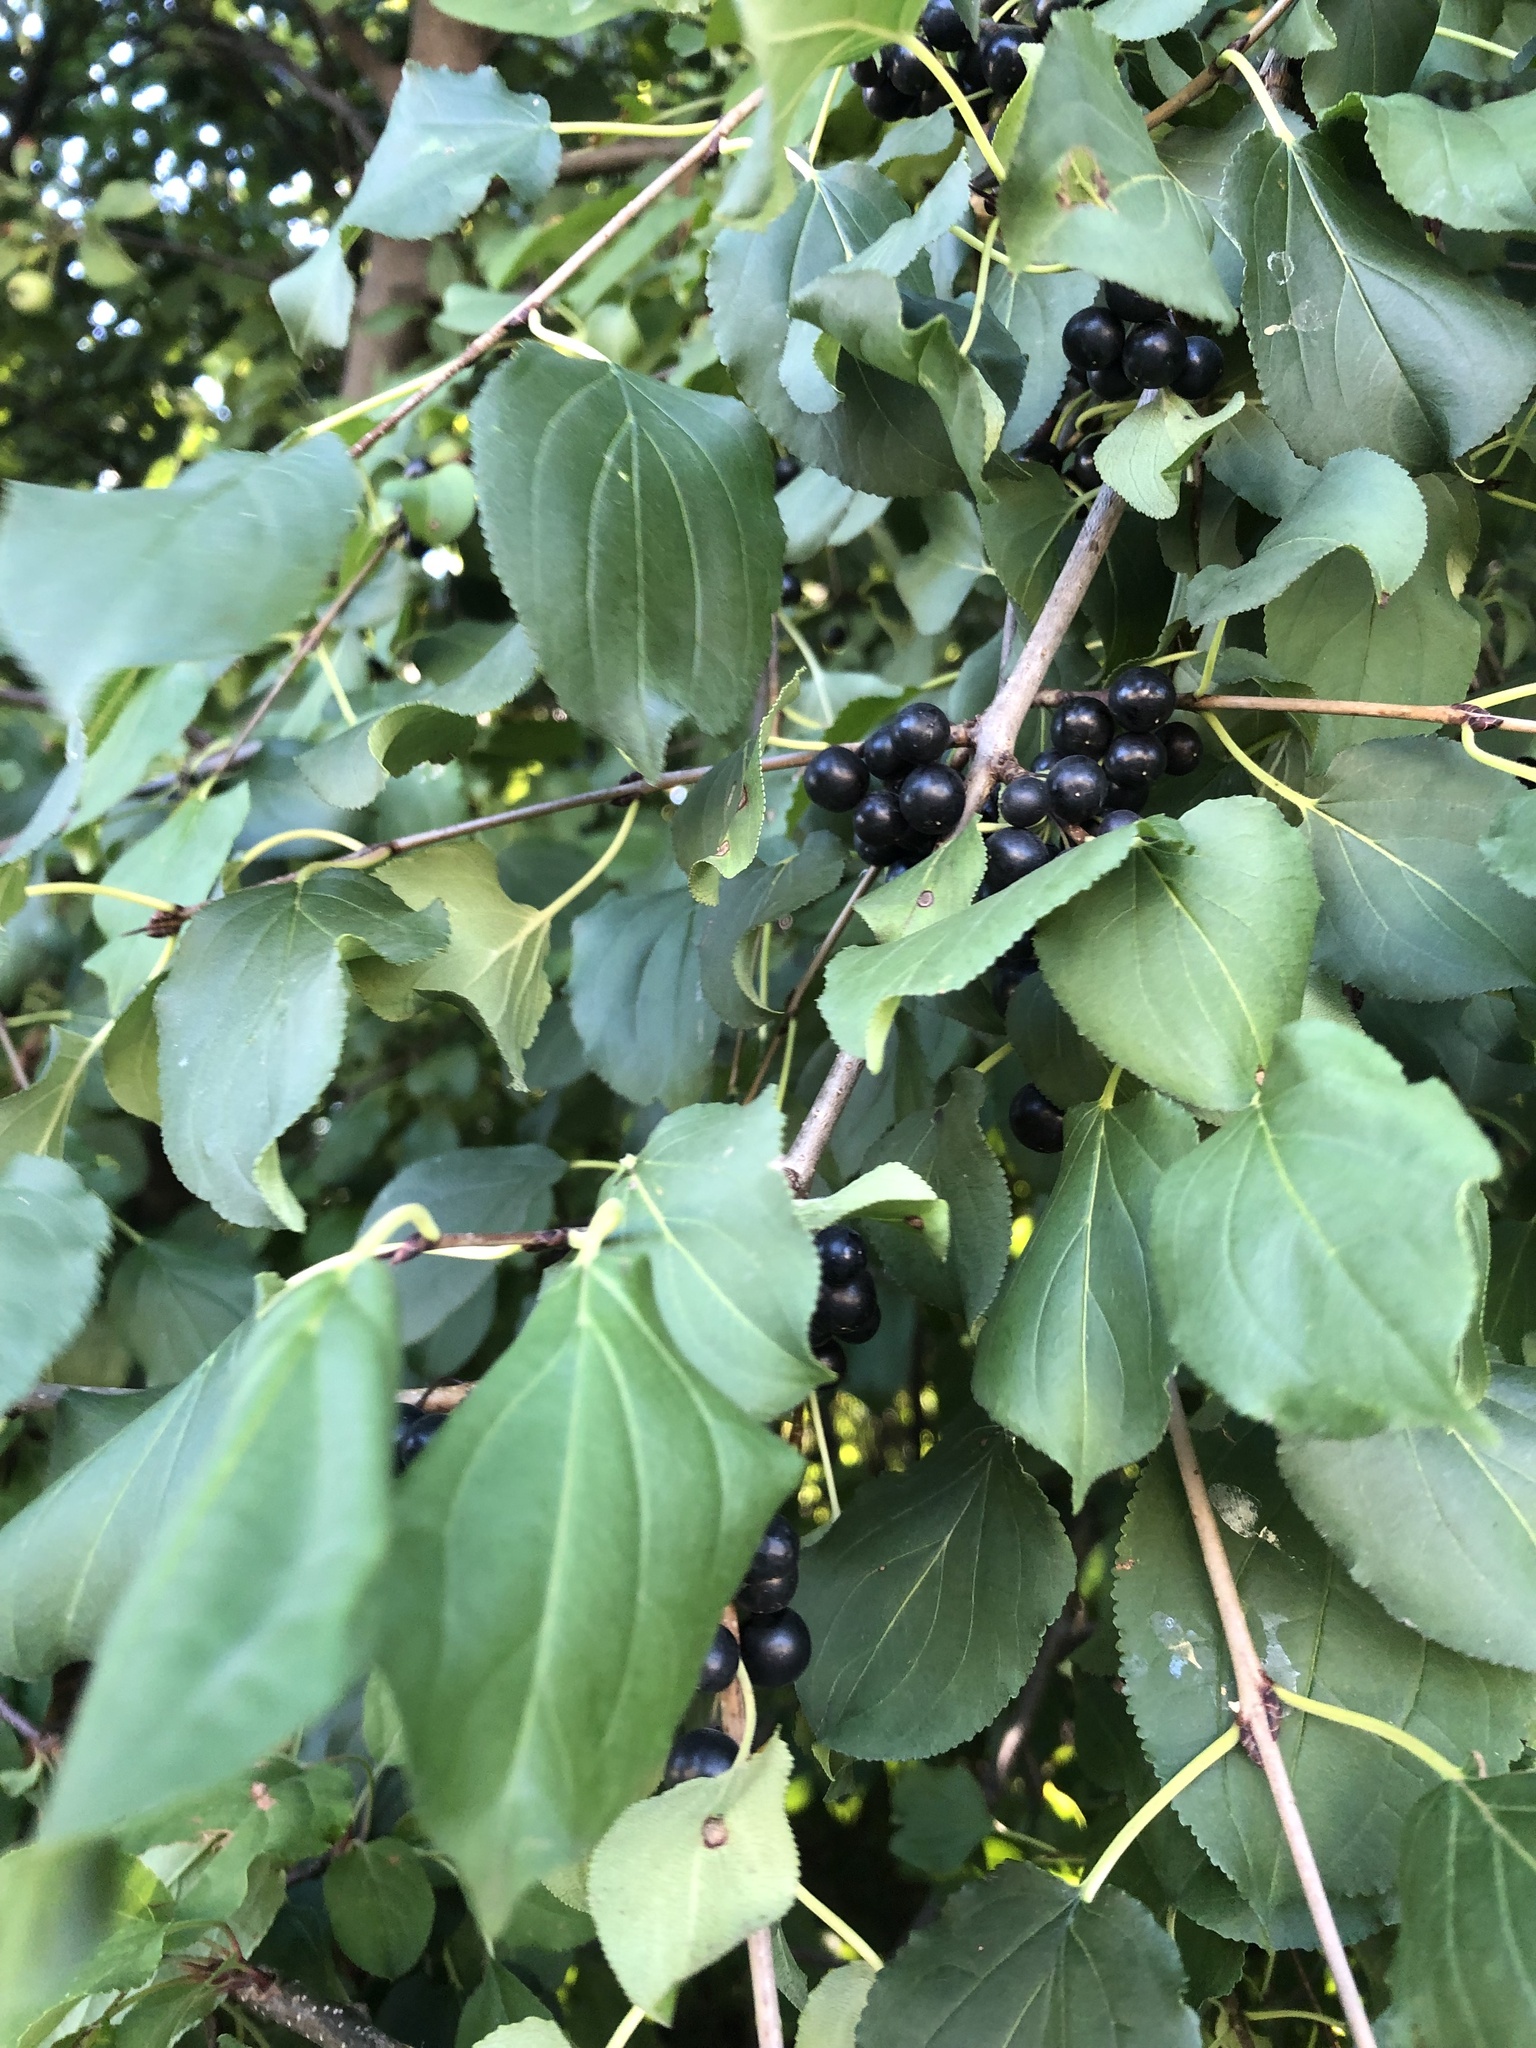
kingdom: Plantae
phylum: Tracheophyta
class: Magnoliopsida
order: Rosales
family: Rhamnaceae
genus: Rhamnus
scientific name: Rhamnus cathartica
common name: Common buckthorn
